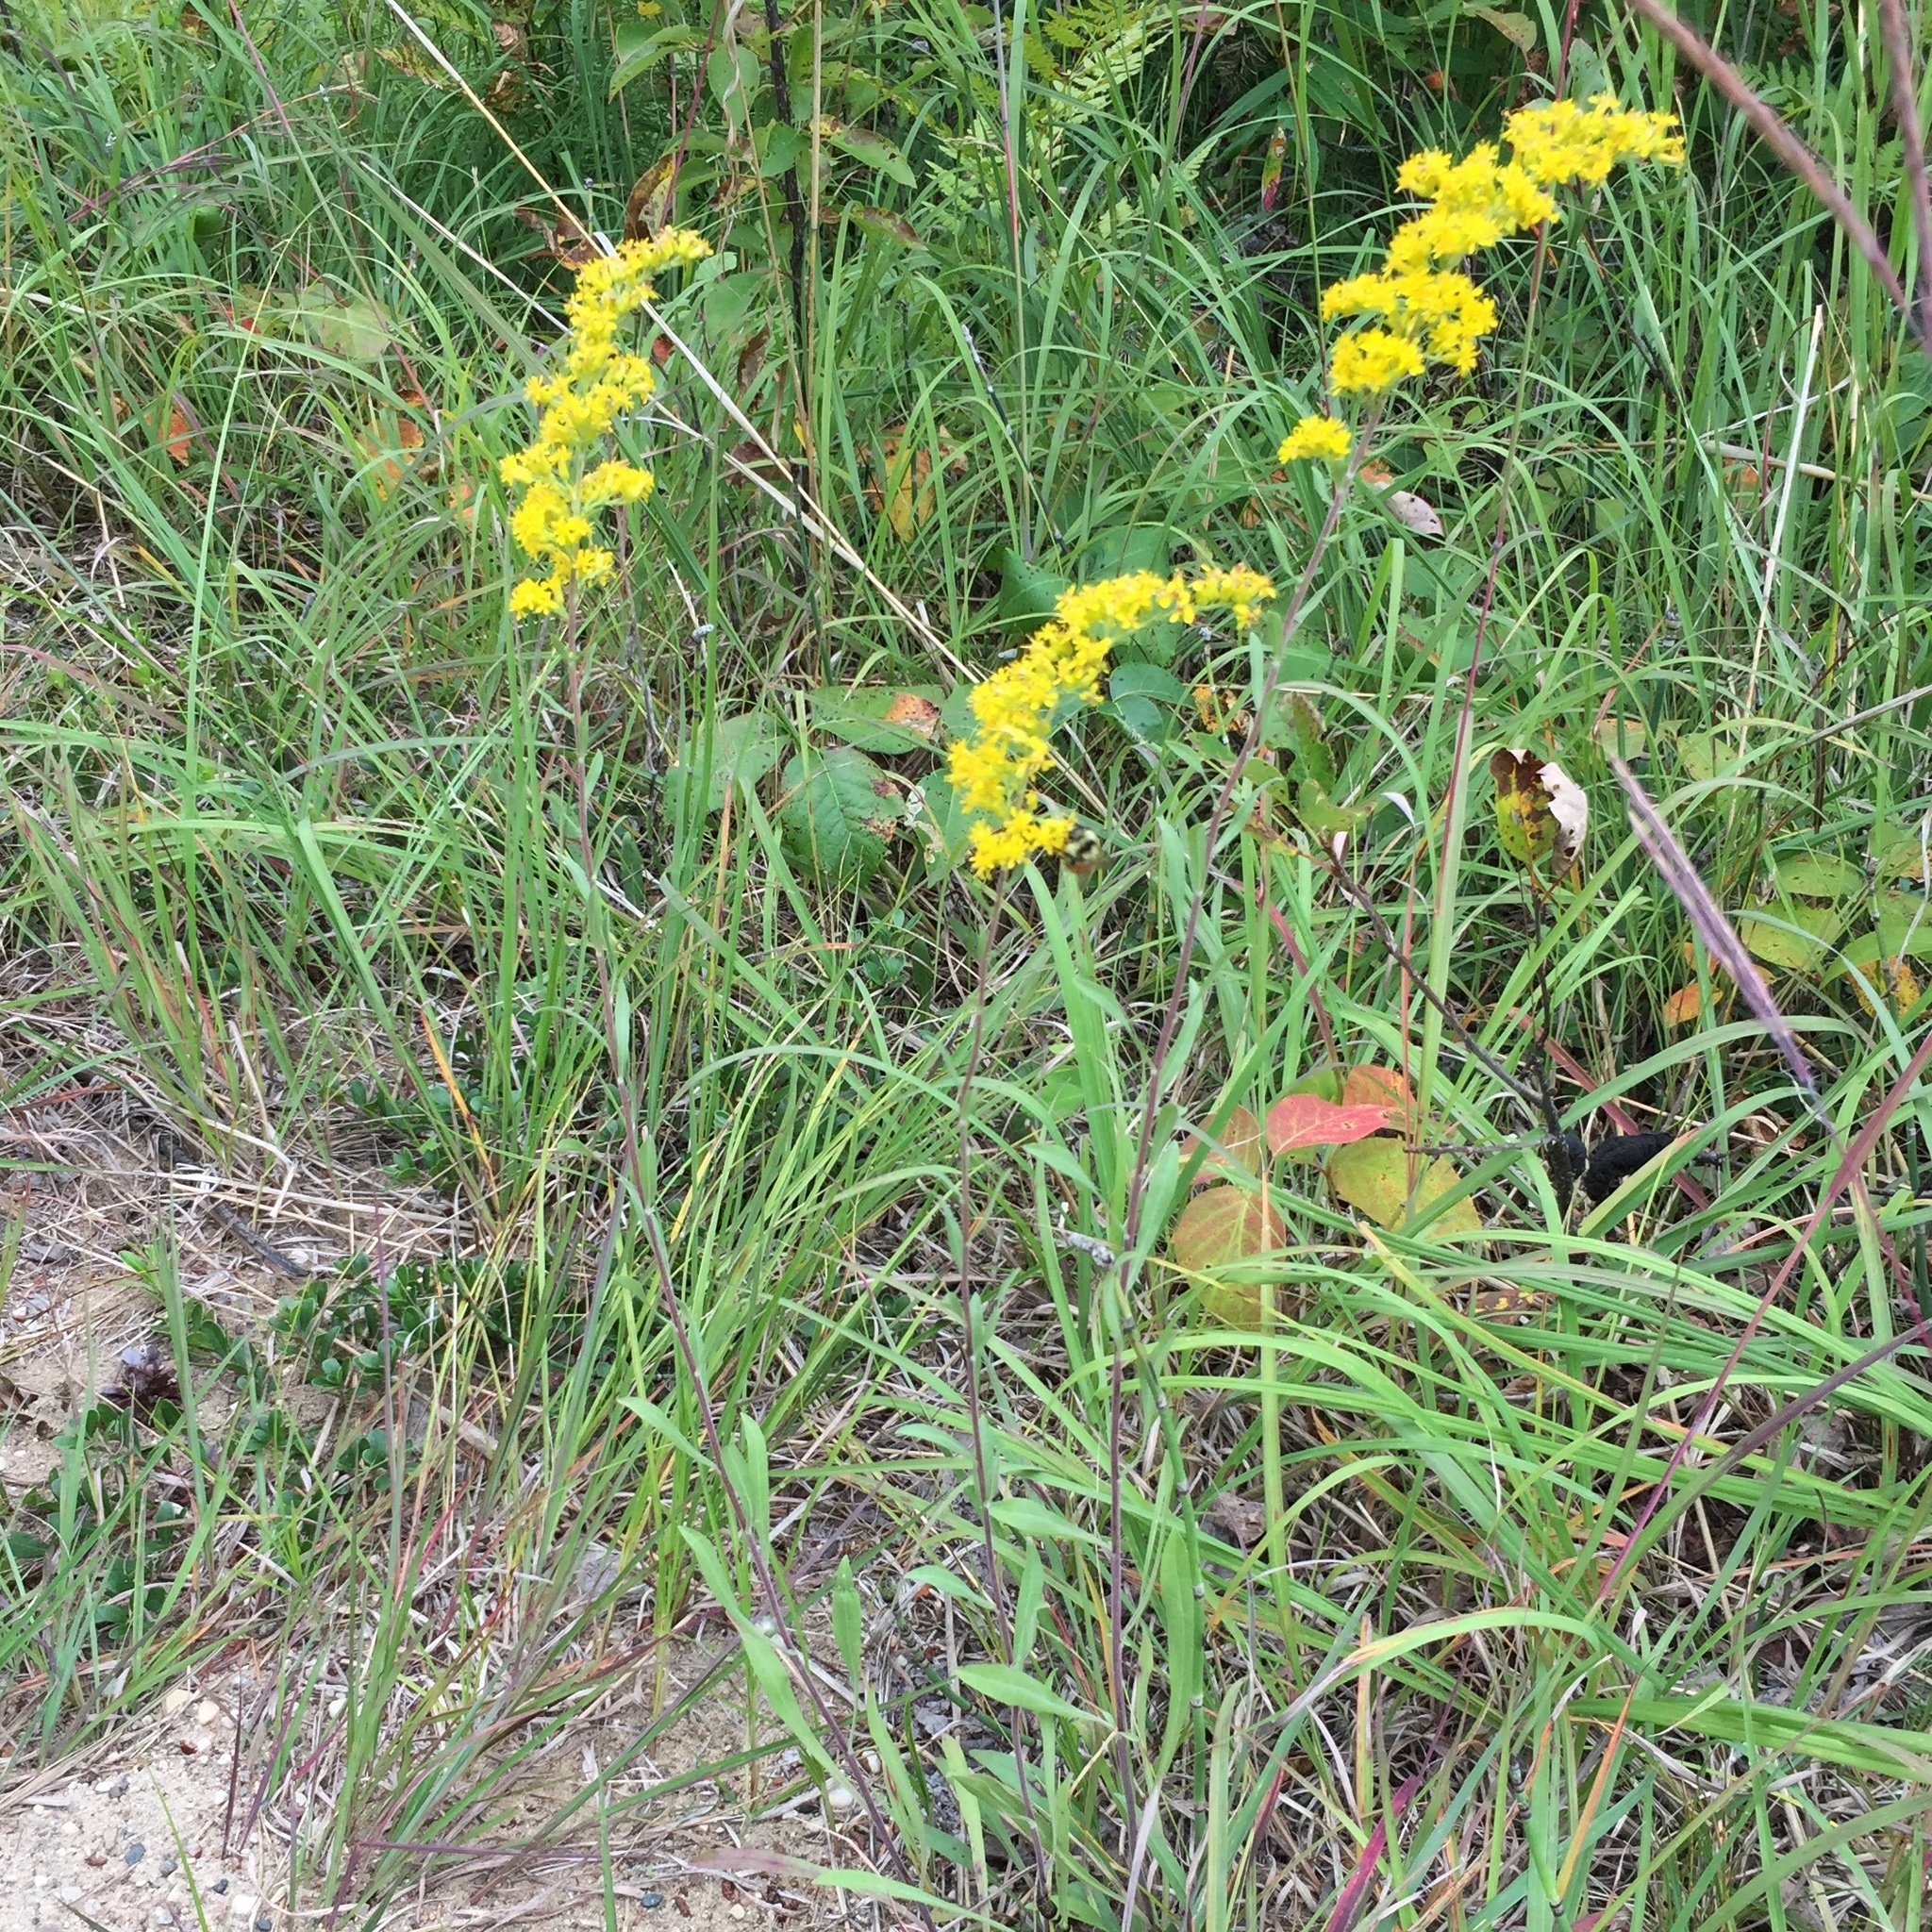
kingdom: Plantae
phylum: Tracheophyta
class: Magnoliopsida
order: Asterales
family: Asteraceae
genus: Solidago
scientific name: Solidago nemoralis
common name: Grey goldenrod
